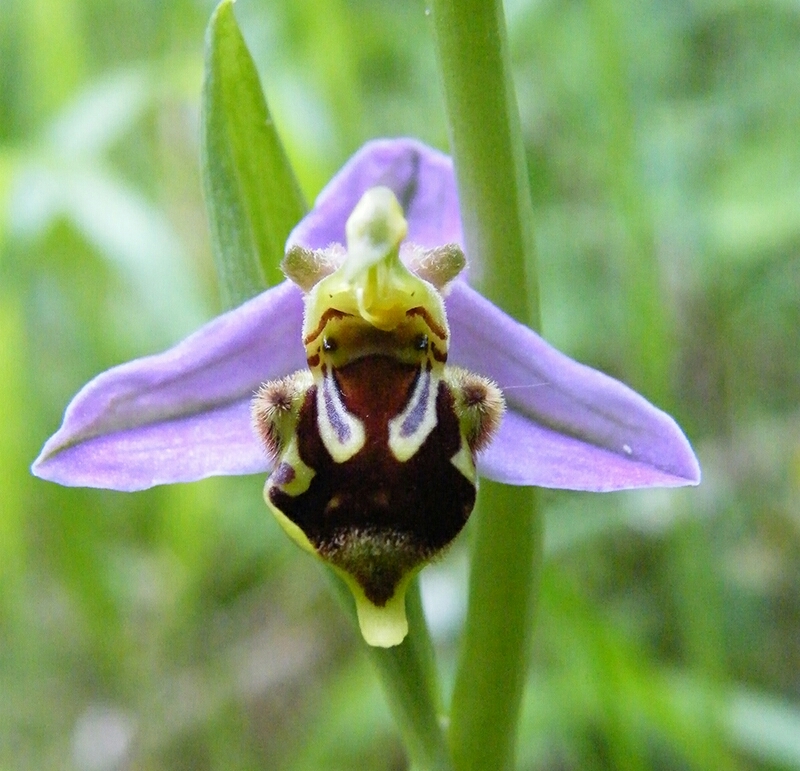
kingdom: Plantae
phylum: Tracheophyta
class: Liliopsida
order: Asparagales
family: Orchidaceae
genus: Ophrys
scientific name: Ophrys apifera
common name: Bee orchid
